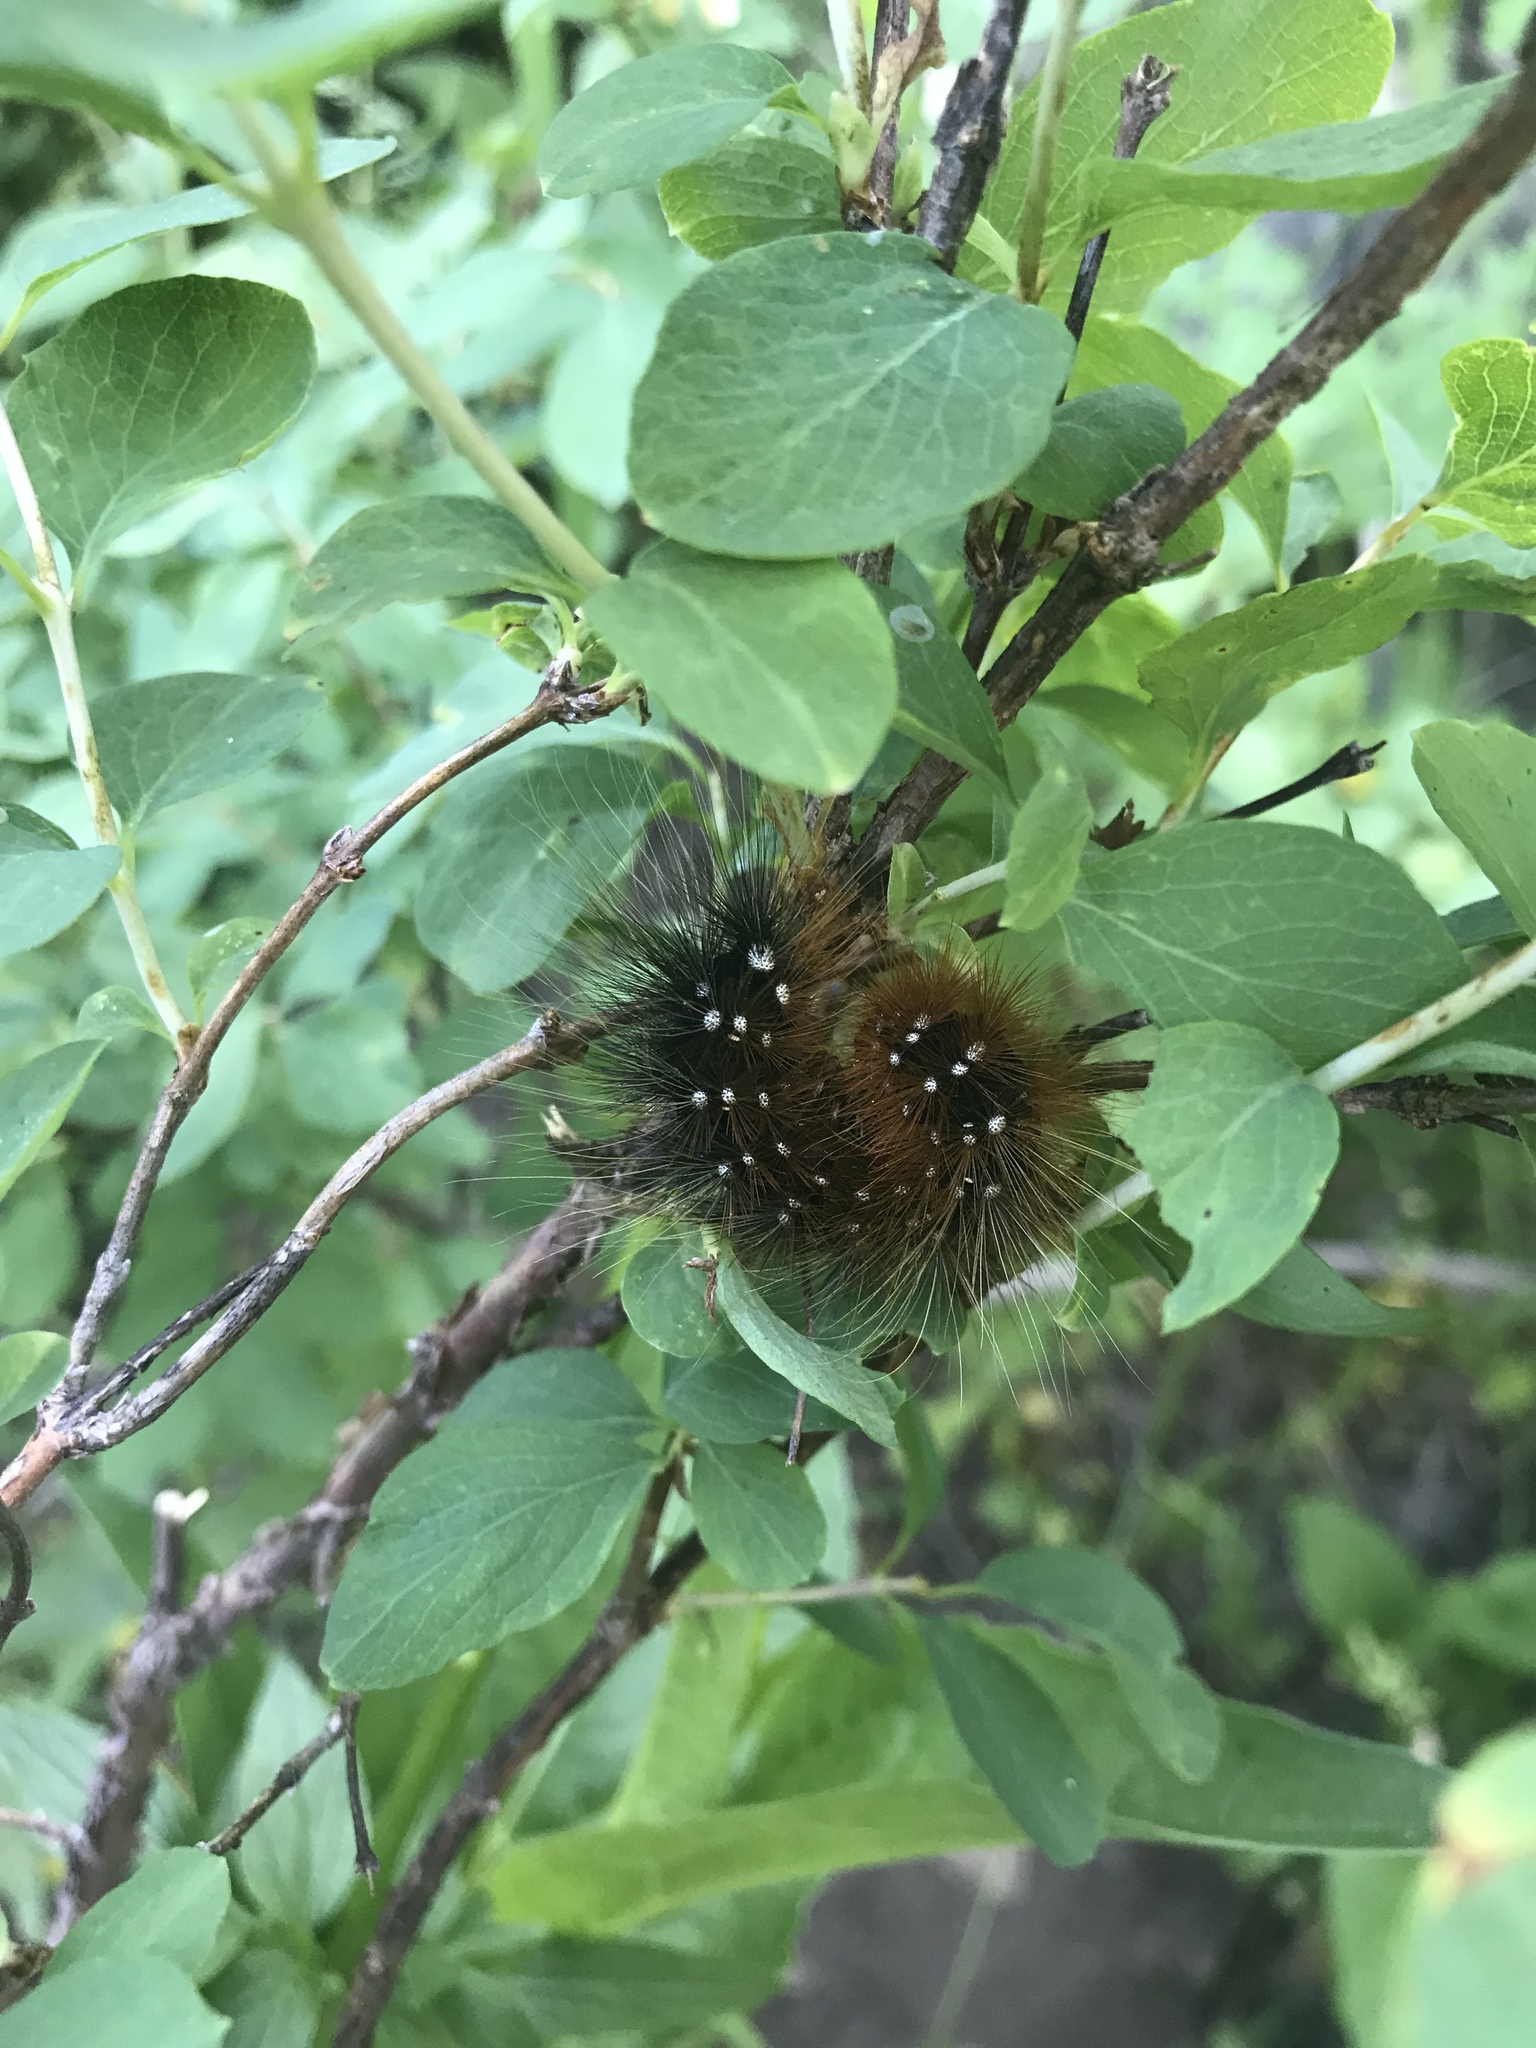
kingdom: Animalia
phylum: Arthropoda
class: Insecta
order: Lepidoptera
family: Erebidae
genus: Arctia
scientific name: Arctia caja
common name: Garden tiger
